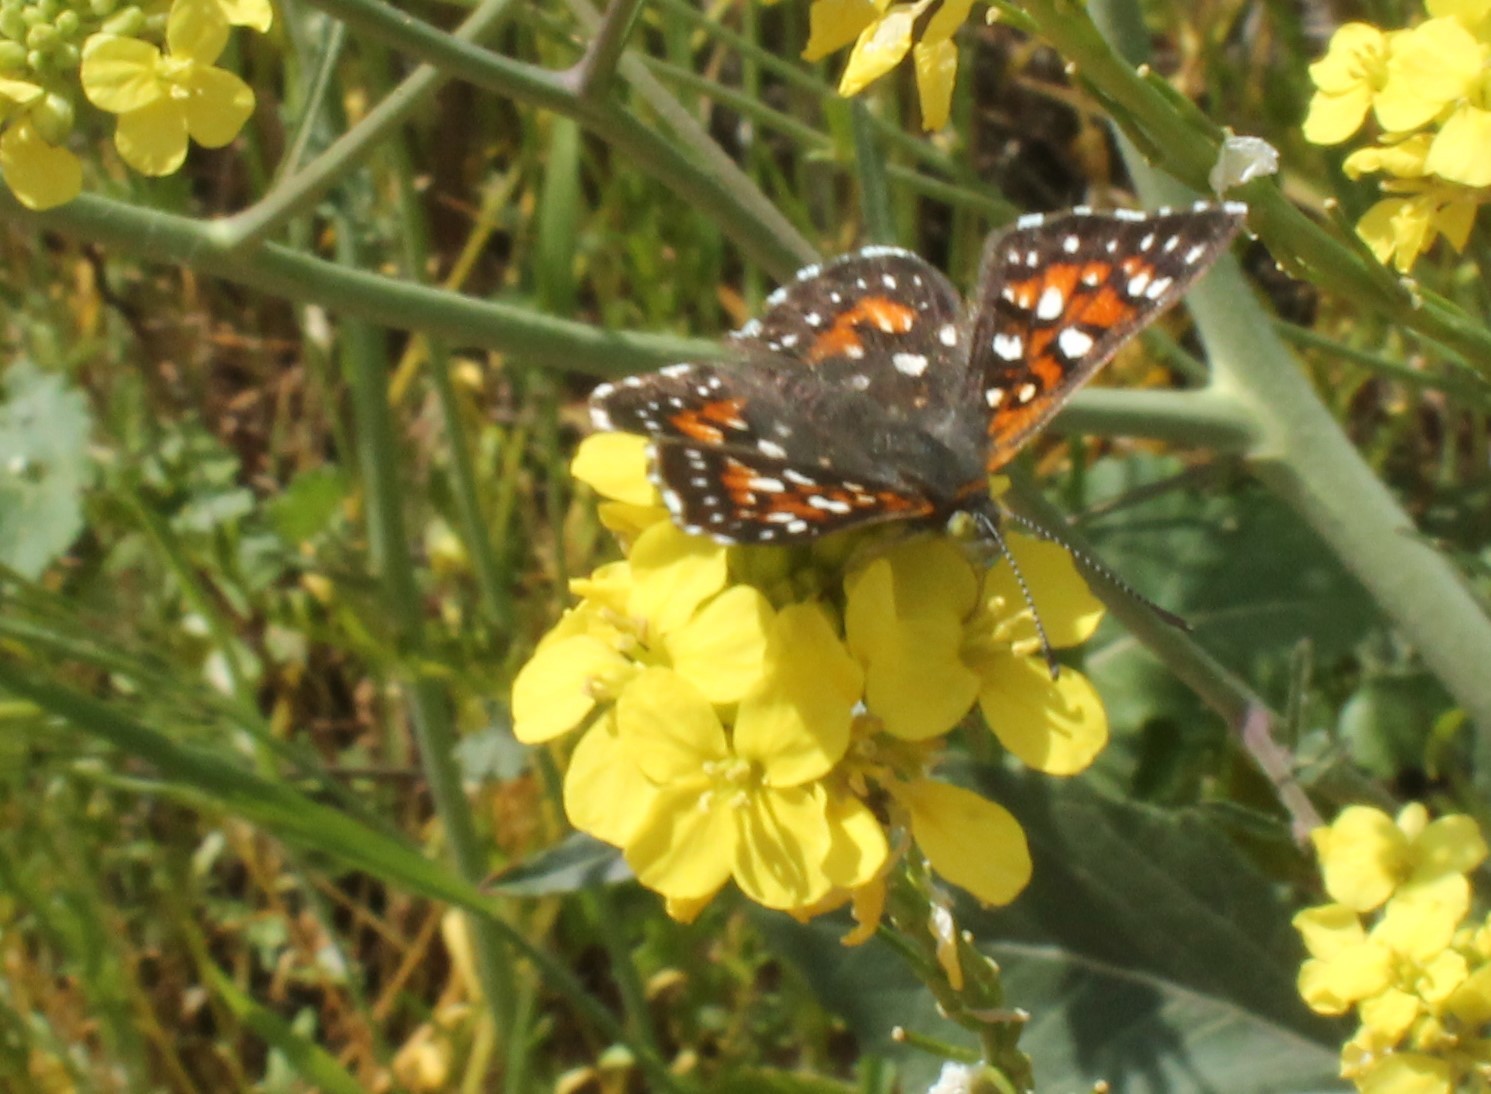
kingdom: Animalia
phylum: Arthropoda
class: Insecta
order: Lepidoptera
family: Riodinidae
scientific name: Riodinidae
